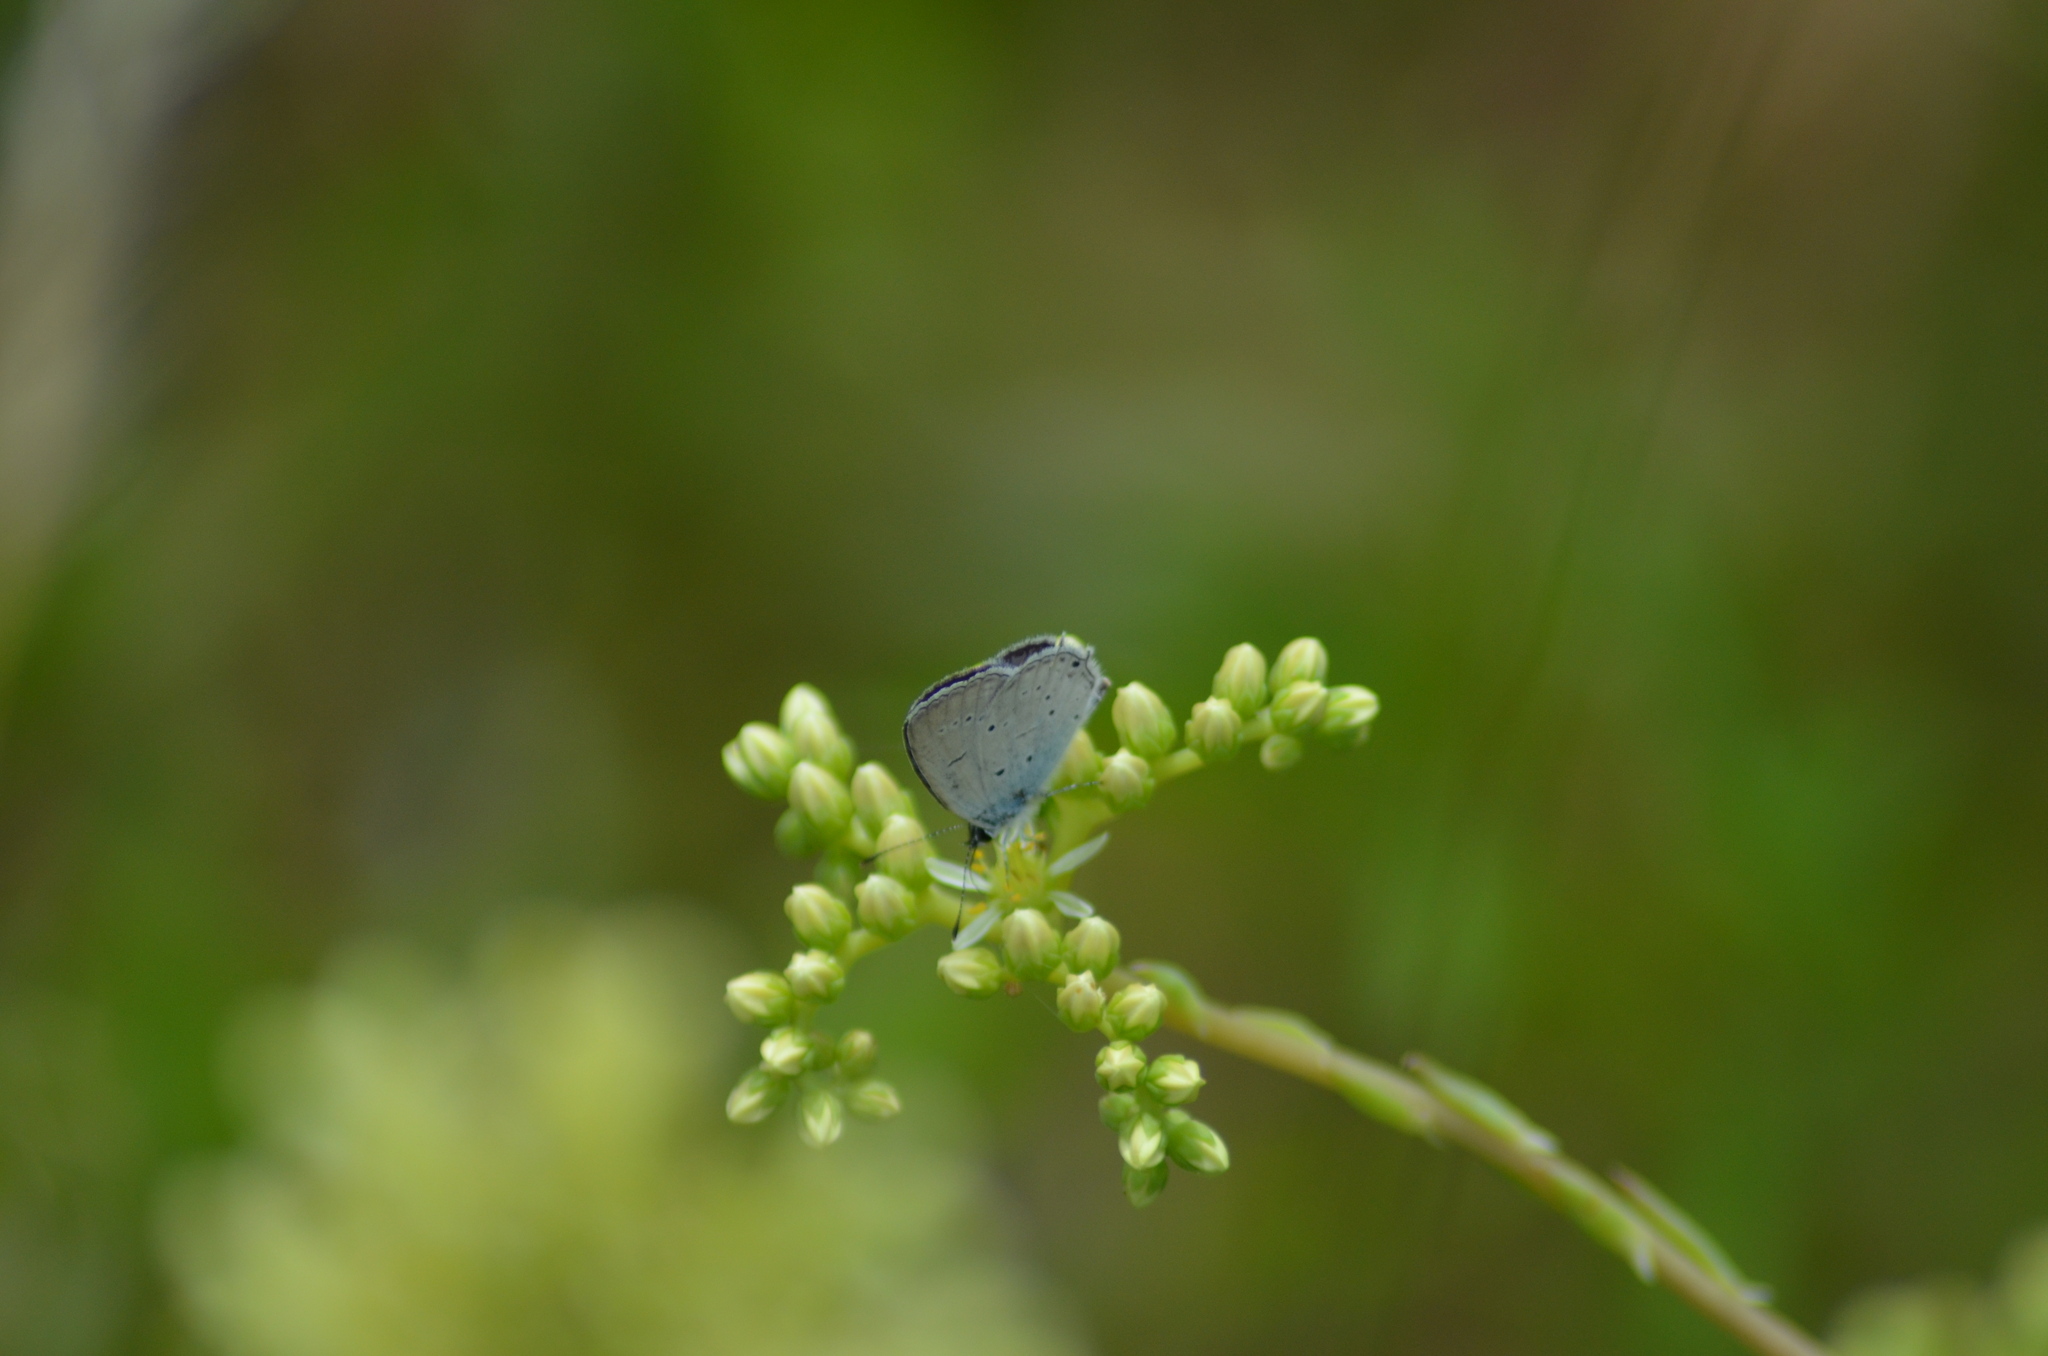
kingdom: Animalia
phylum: Arthropoda
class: Insecta
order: Lepidoptera
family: Lycaenidae
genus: Elkalyce
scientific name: Elkalyce alcetas
